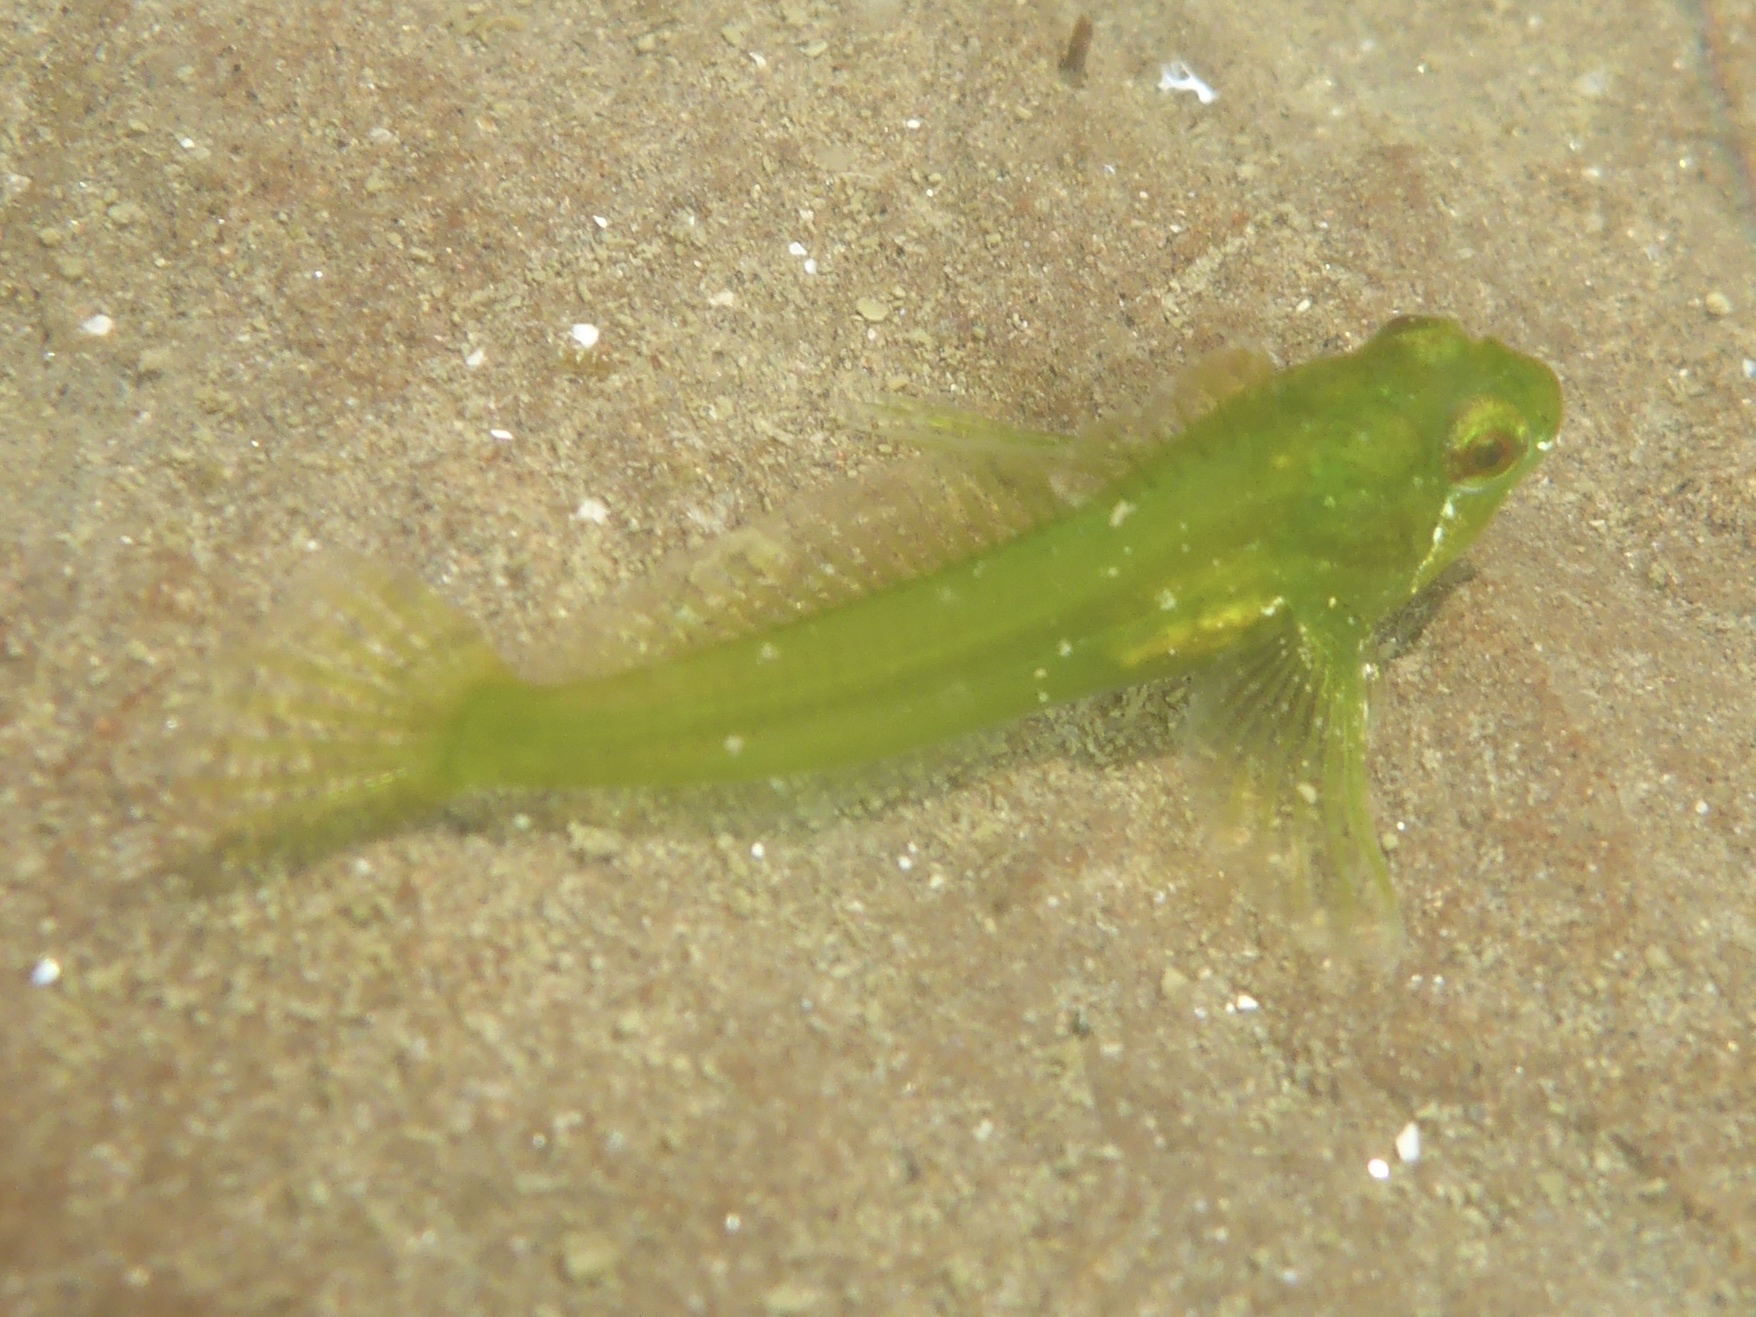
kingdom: Animalia
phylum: Chordata
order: Scorpaeniformes
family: Cottidae
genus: Oligocottus
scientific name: Oligocottus snyderi
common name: Fluffy sculpin
